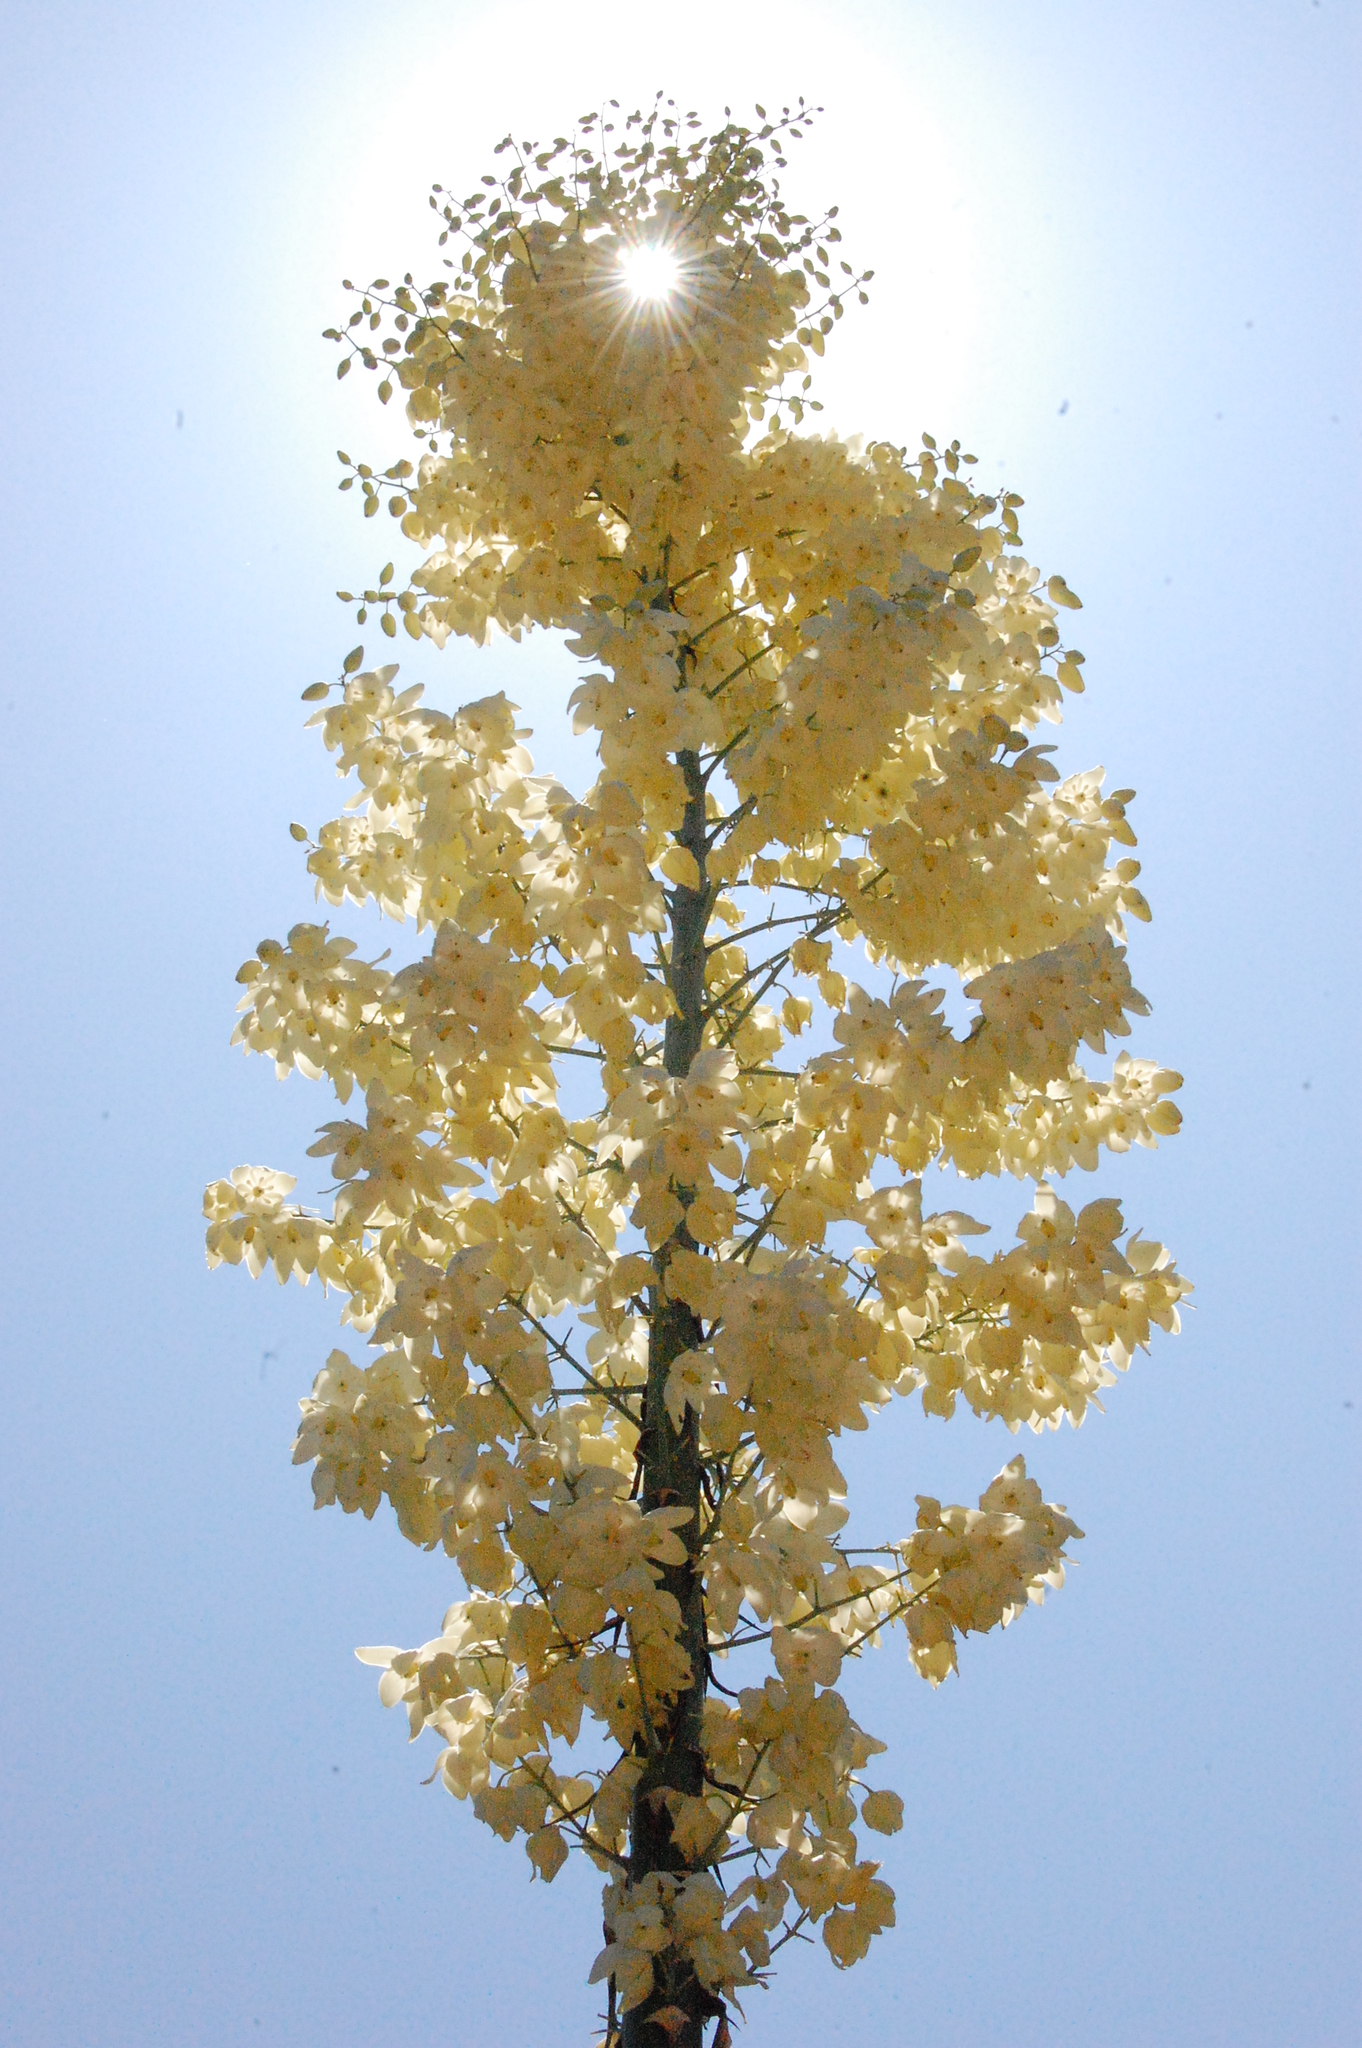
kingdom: Plantae
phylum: Tracheophyta
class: Liliopsida
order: Asparagales
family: Asparagaceae
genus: Hesperoyucca
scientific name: Hesperoyucca whipplei
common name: Our lord's-candle
